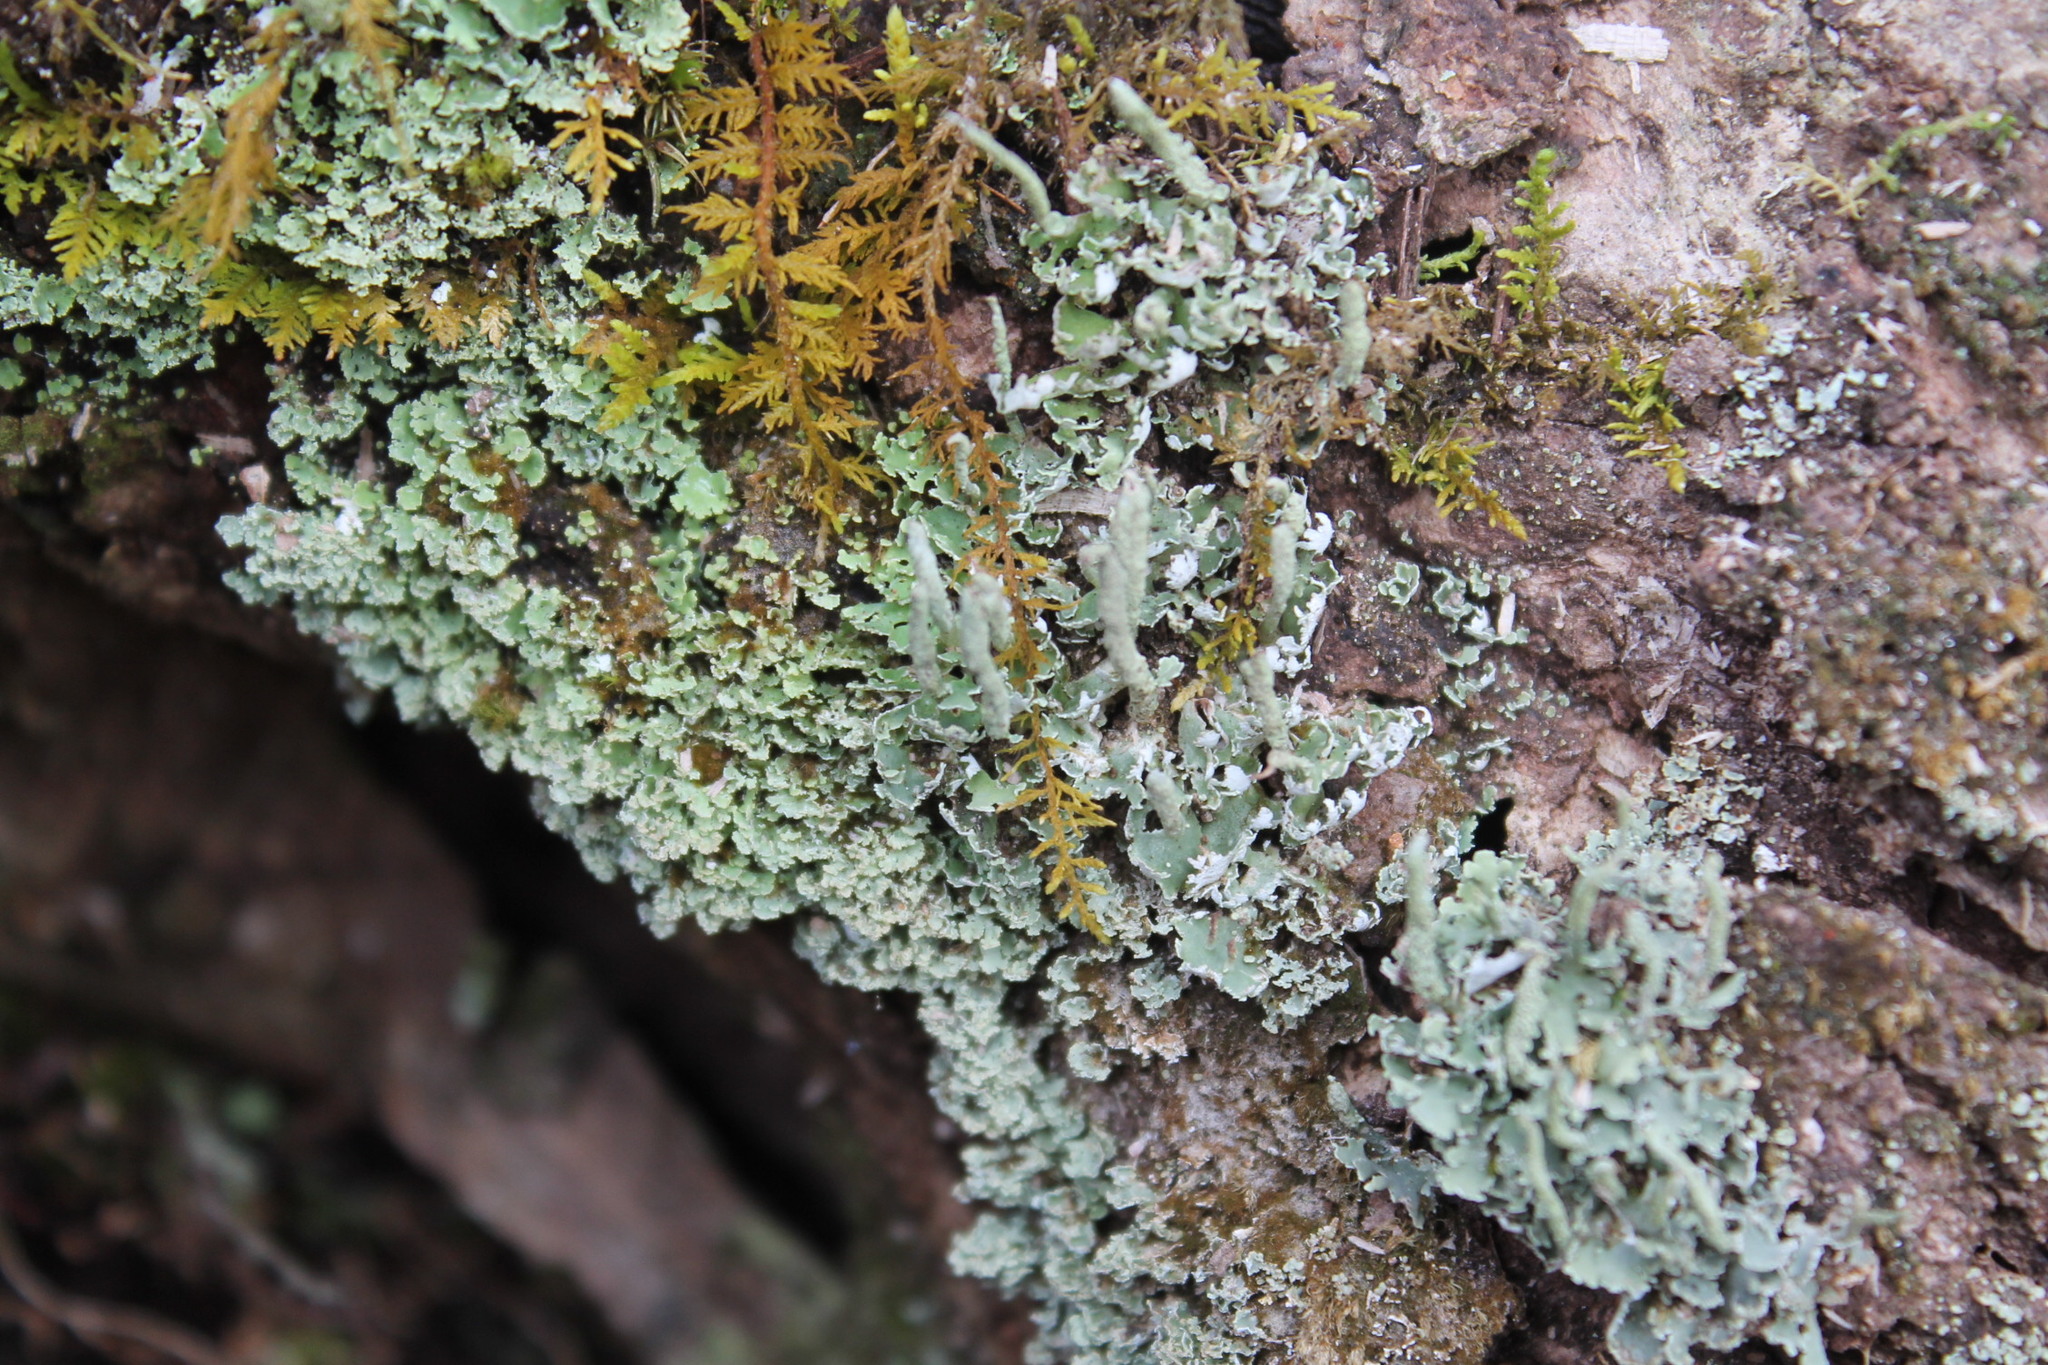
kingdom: Fungi
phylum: Ascomycota
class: Lecanoromycetes
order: Lecanorales
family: Cladoniaceae
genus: Cladonia
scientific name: Cladonia coniocraea
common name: Common powderhorn
